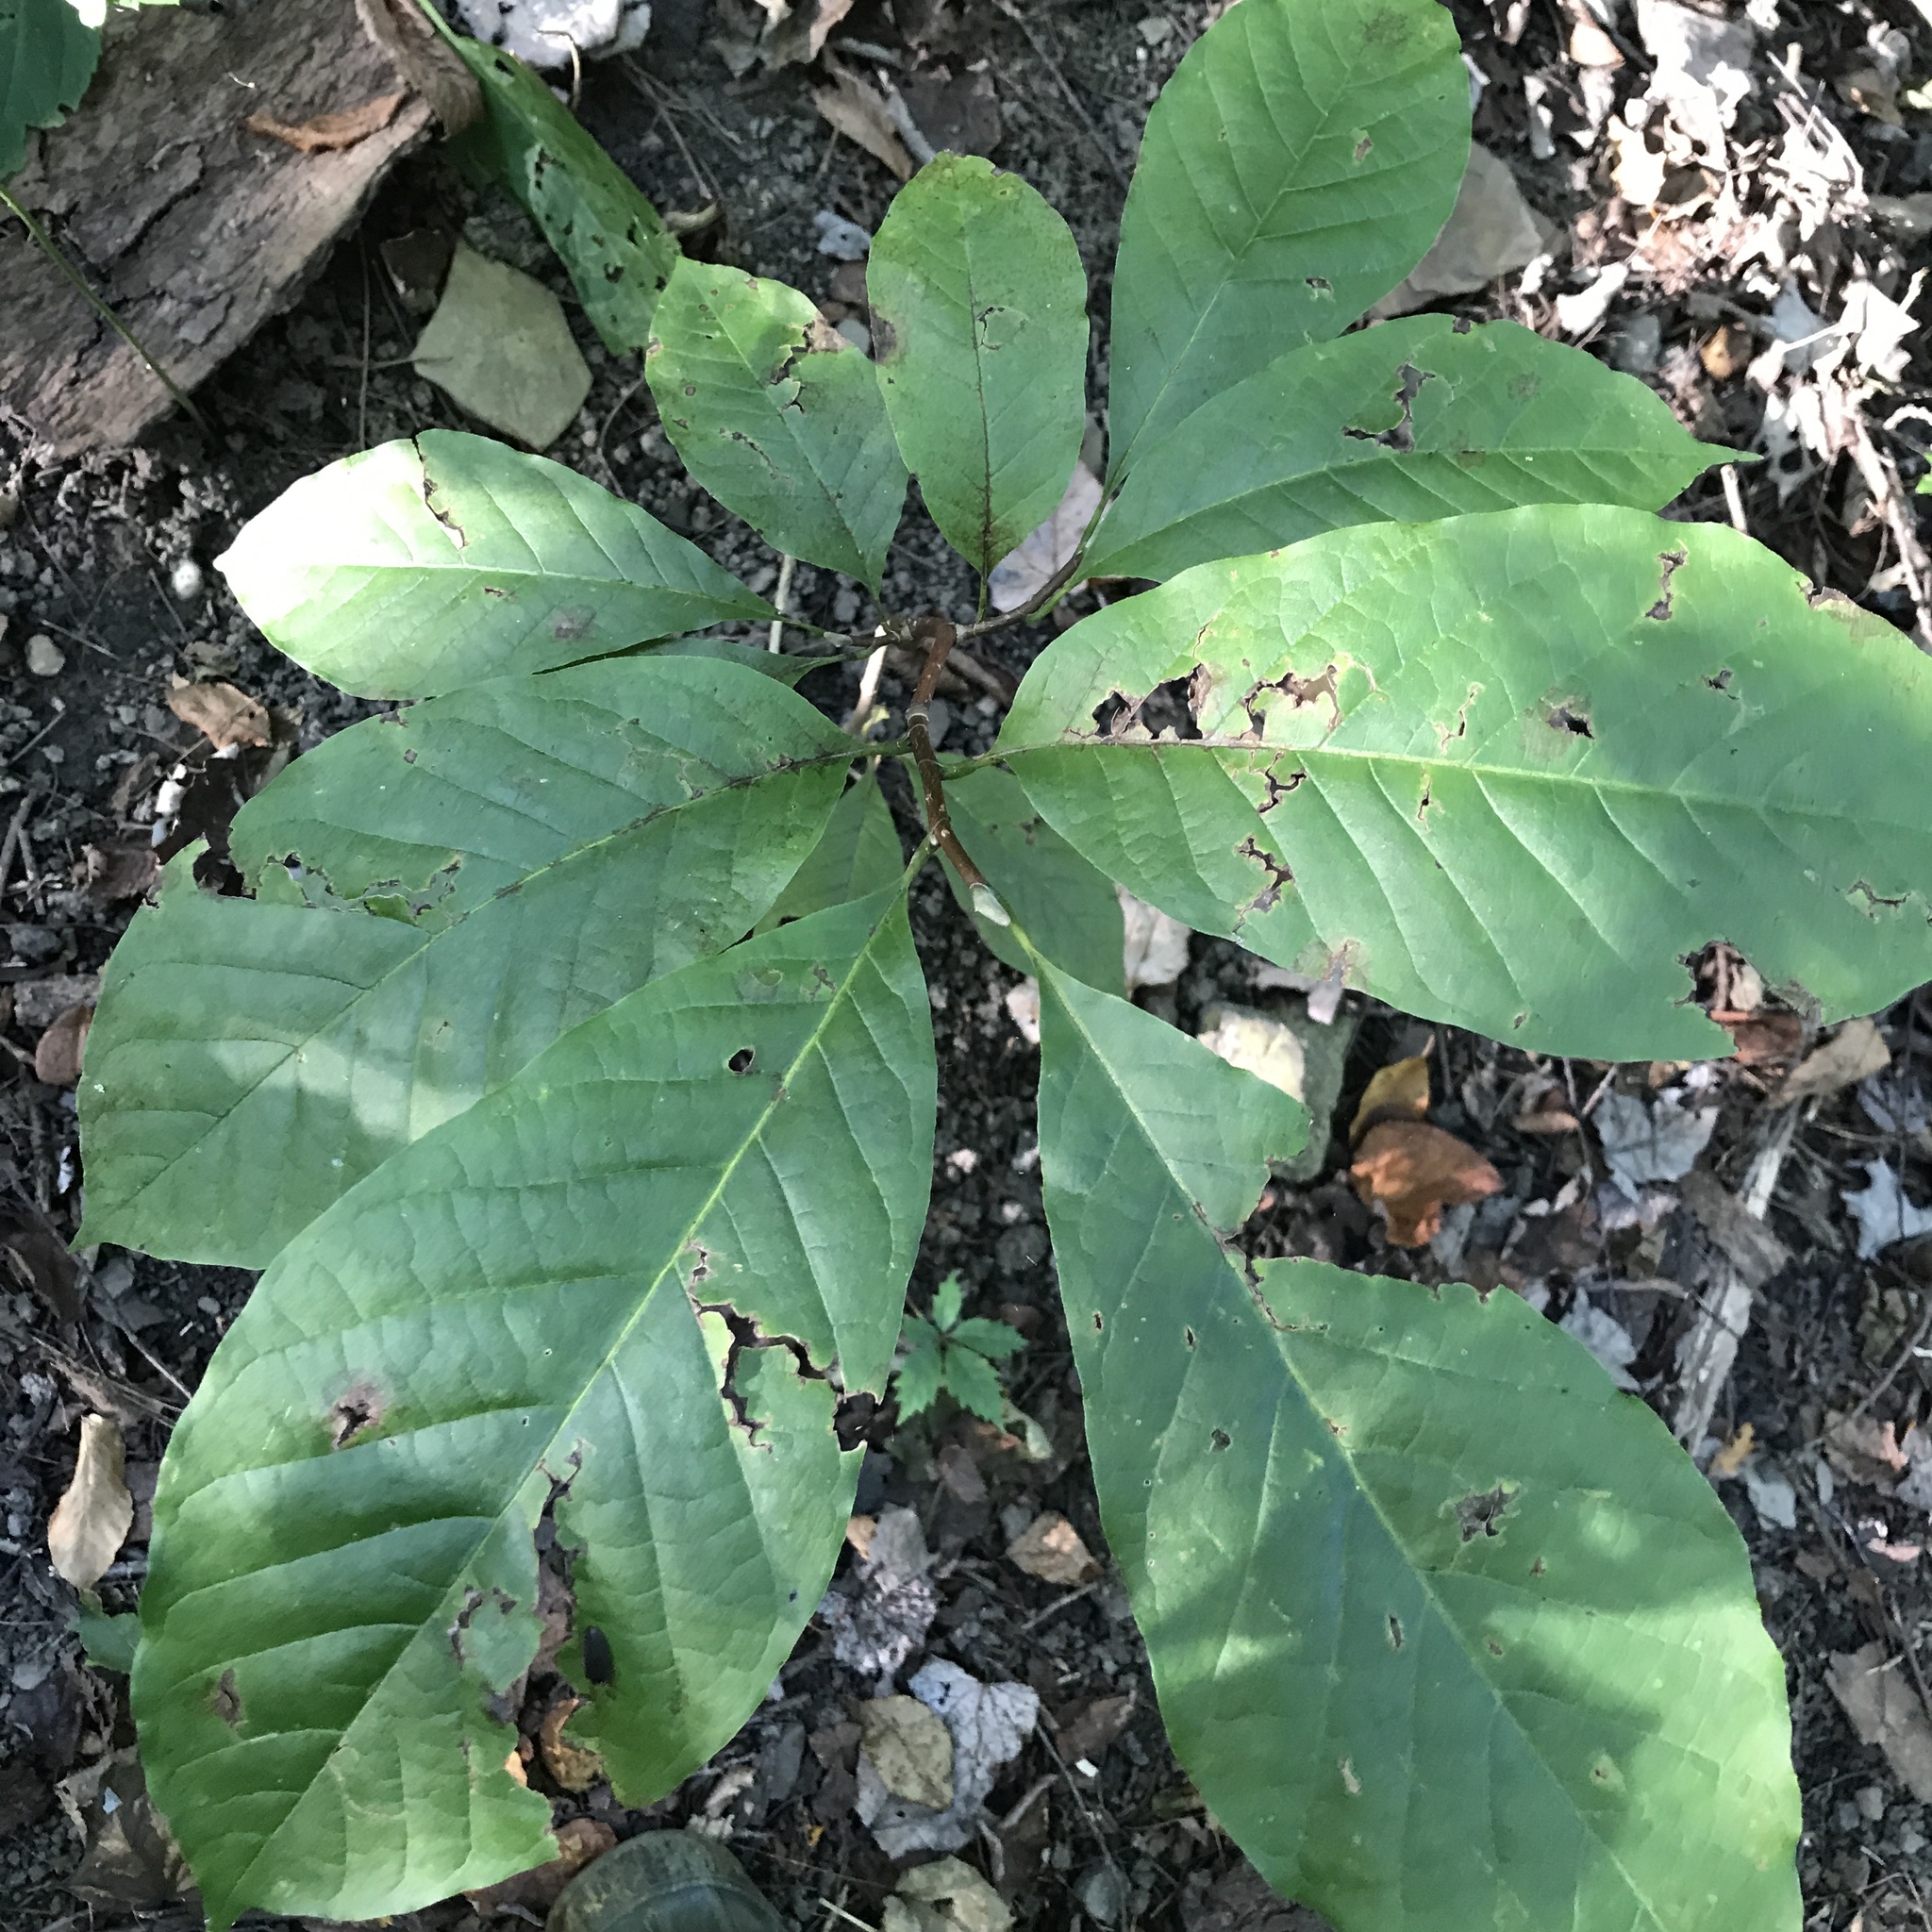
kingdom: Plantae
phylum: Tracheophyta
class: Magnoliopsida
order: Magnoliales
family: Magnoliaceae
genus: Magnolia
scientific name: Magnolia acuminata
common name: Cucumber magnolia
